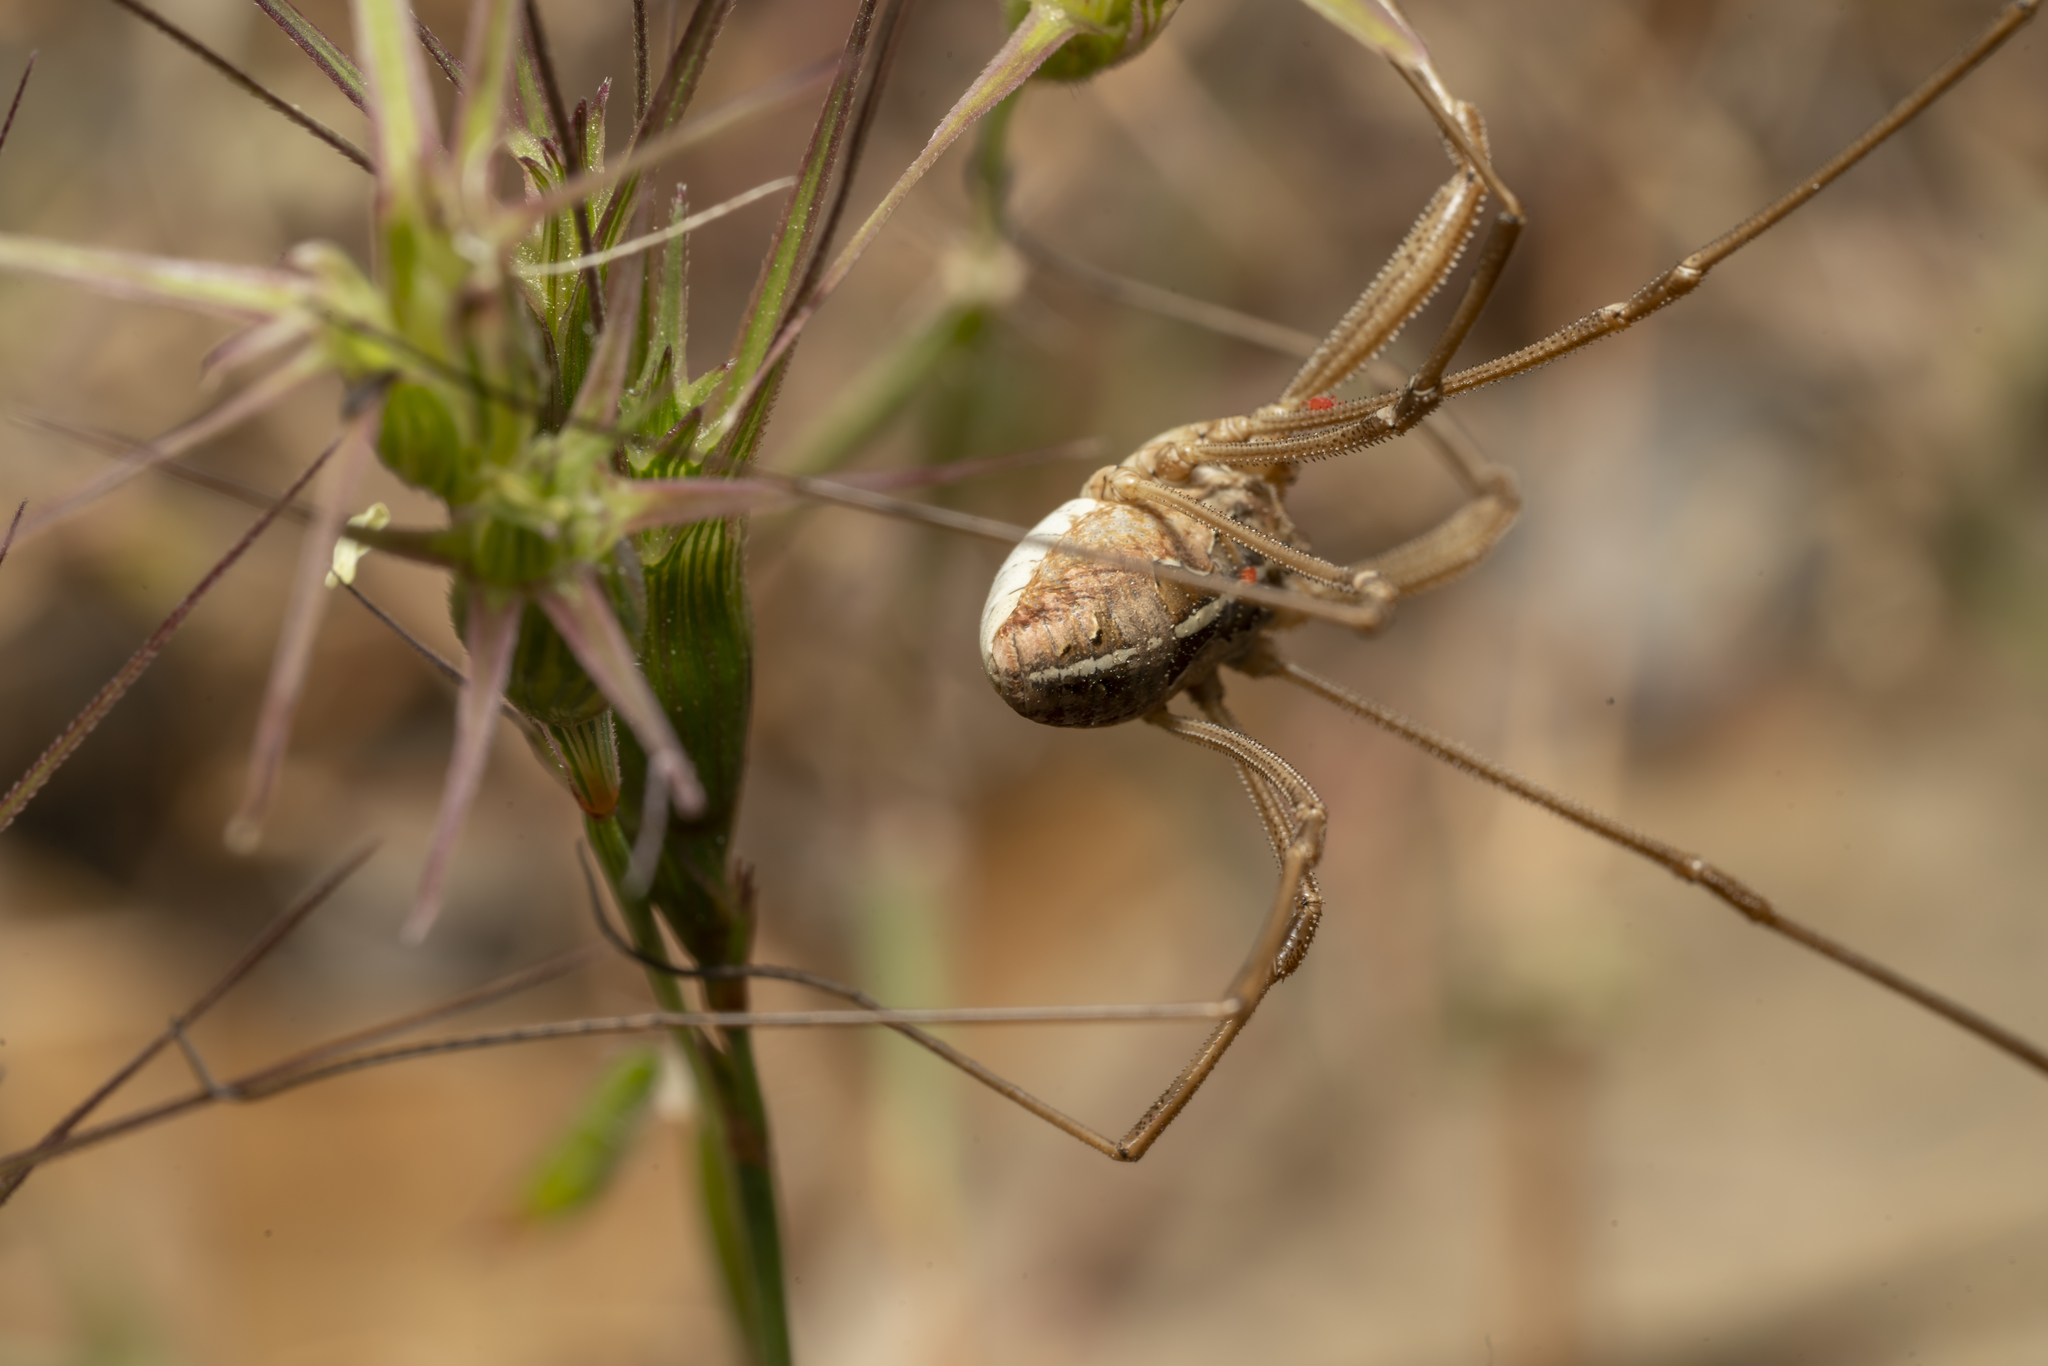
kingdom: Animalia
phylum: Arthropoda
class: Arachnida
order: Opiliones
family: Phalangiidae
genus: Metaphalangium
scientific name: Metaphalangium cirtanum
